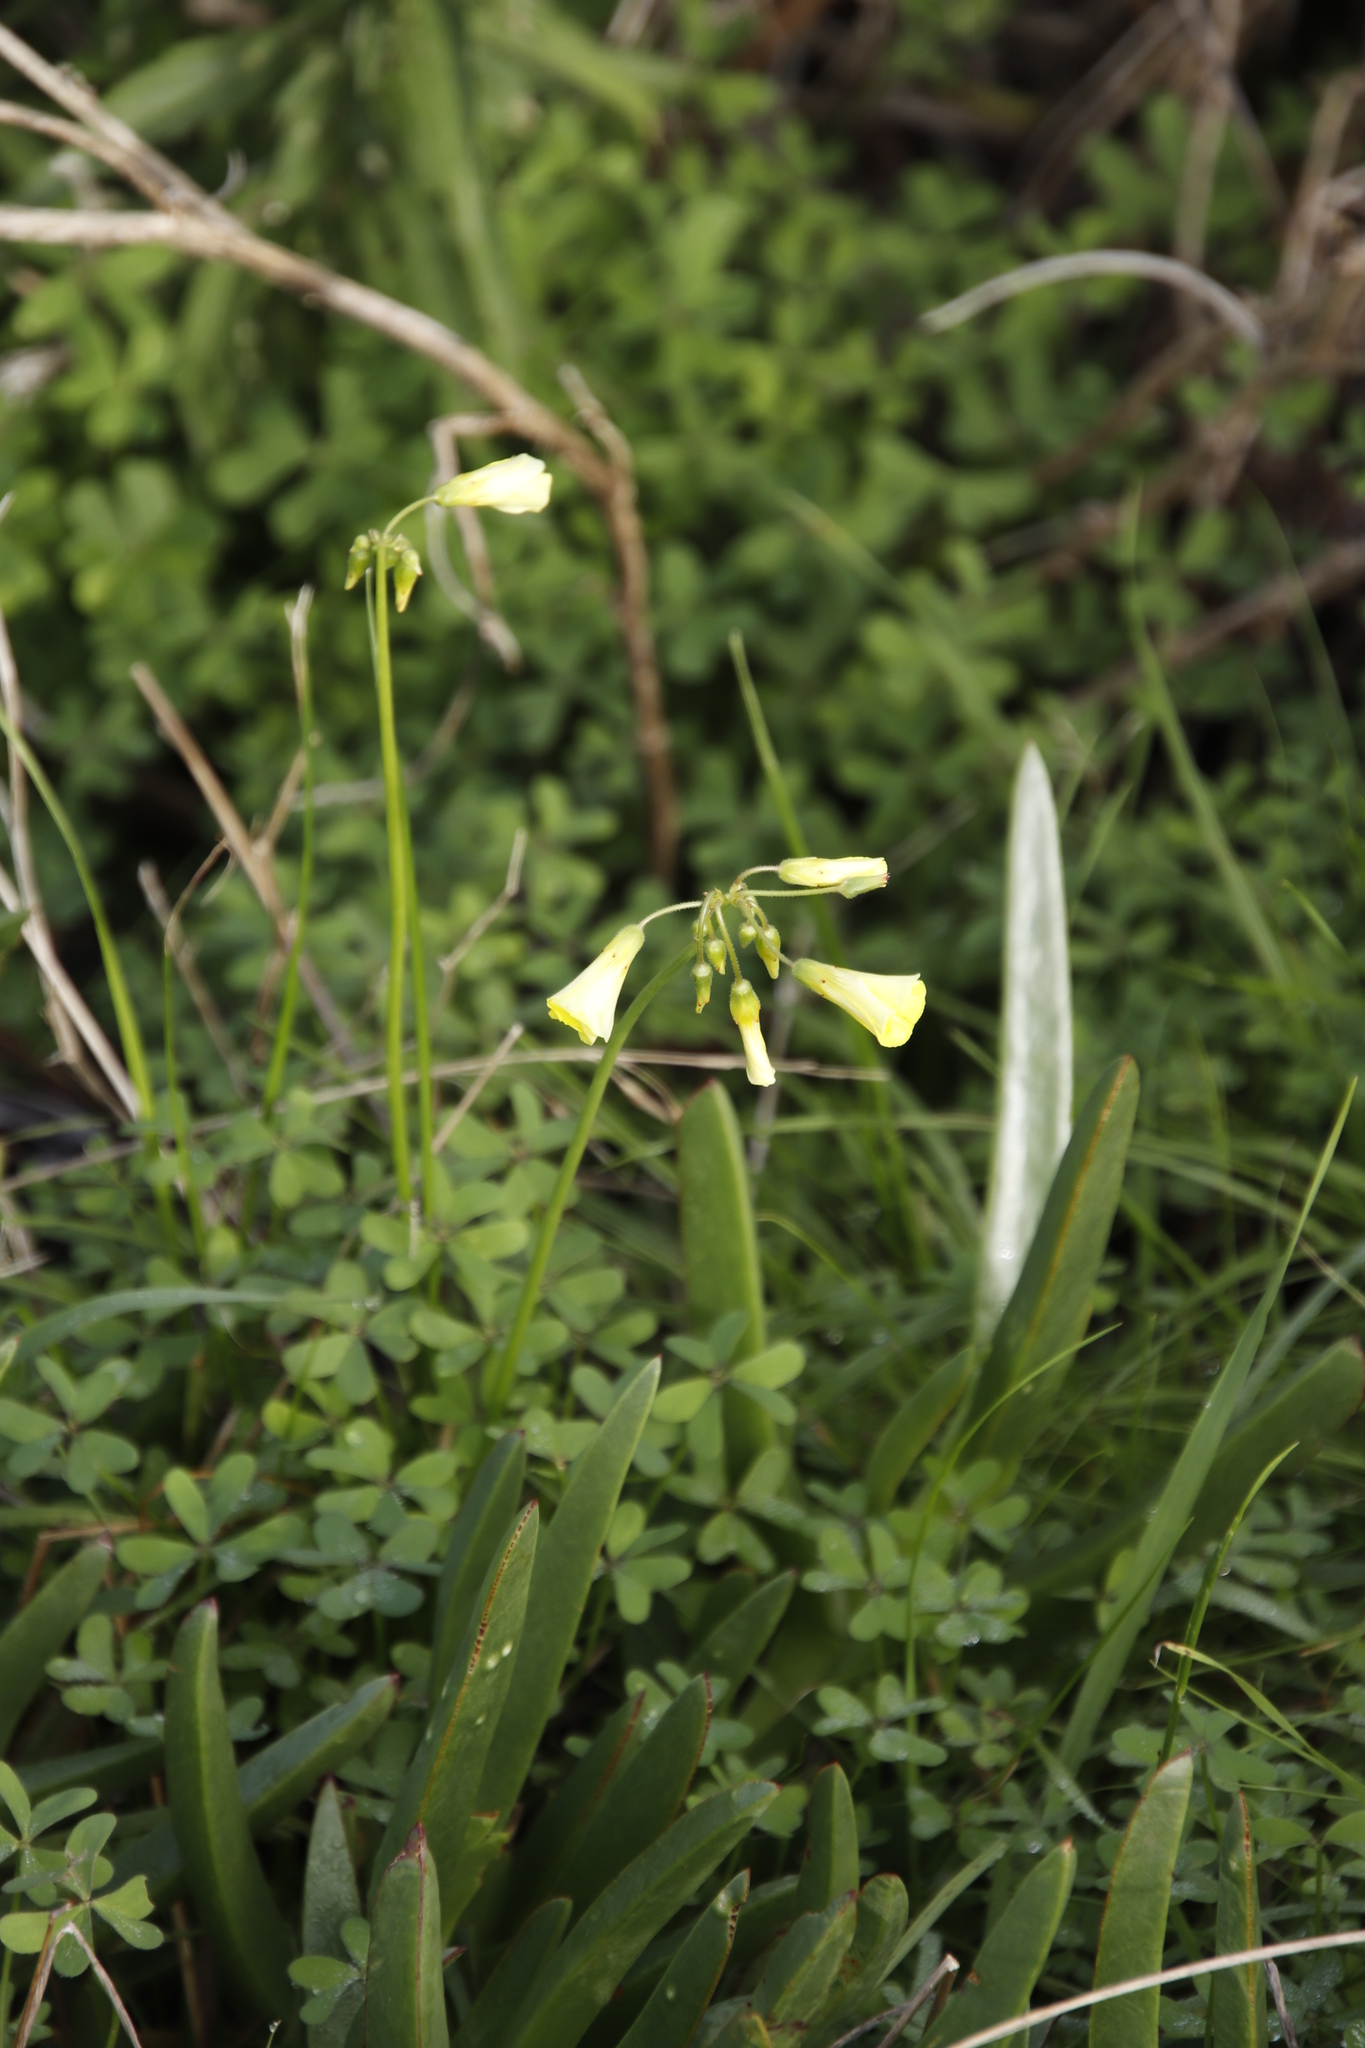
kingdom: Plantae
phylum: Tracheophyta
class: Magnoliopsida
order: Oxalidales
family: Oxalidaceae
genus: Oxalis
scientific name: Oxalis pes-caprae
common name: Bermuda-buttercup
